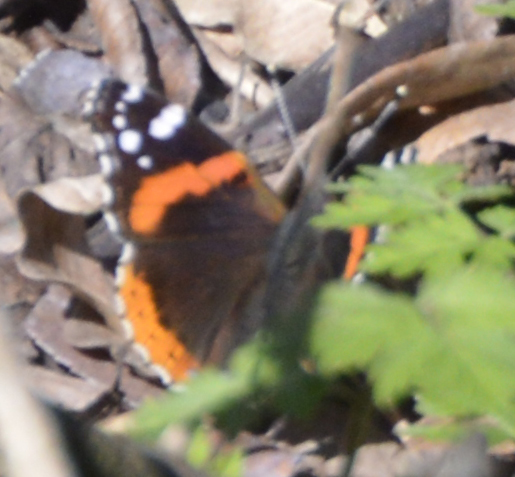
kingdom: Animalia
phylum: Arthropoda
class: Insecta
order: Lepidoptera
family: Nymphalidae
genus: Vanessa
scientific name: Vanessa atalanta
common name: Red admiral
